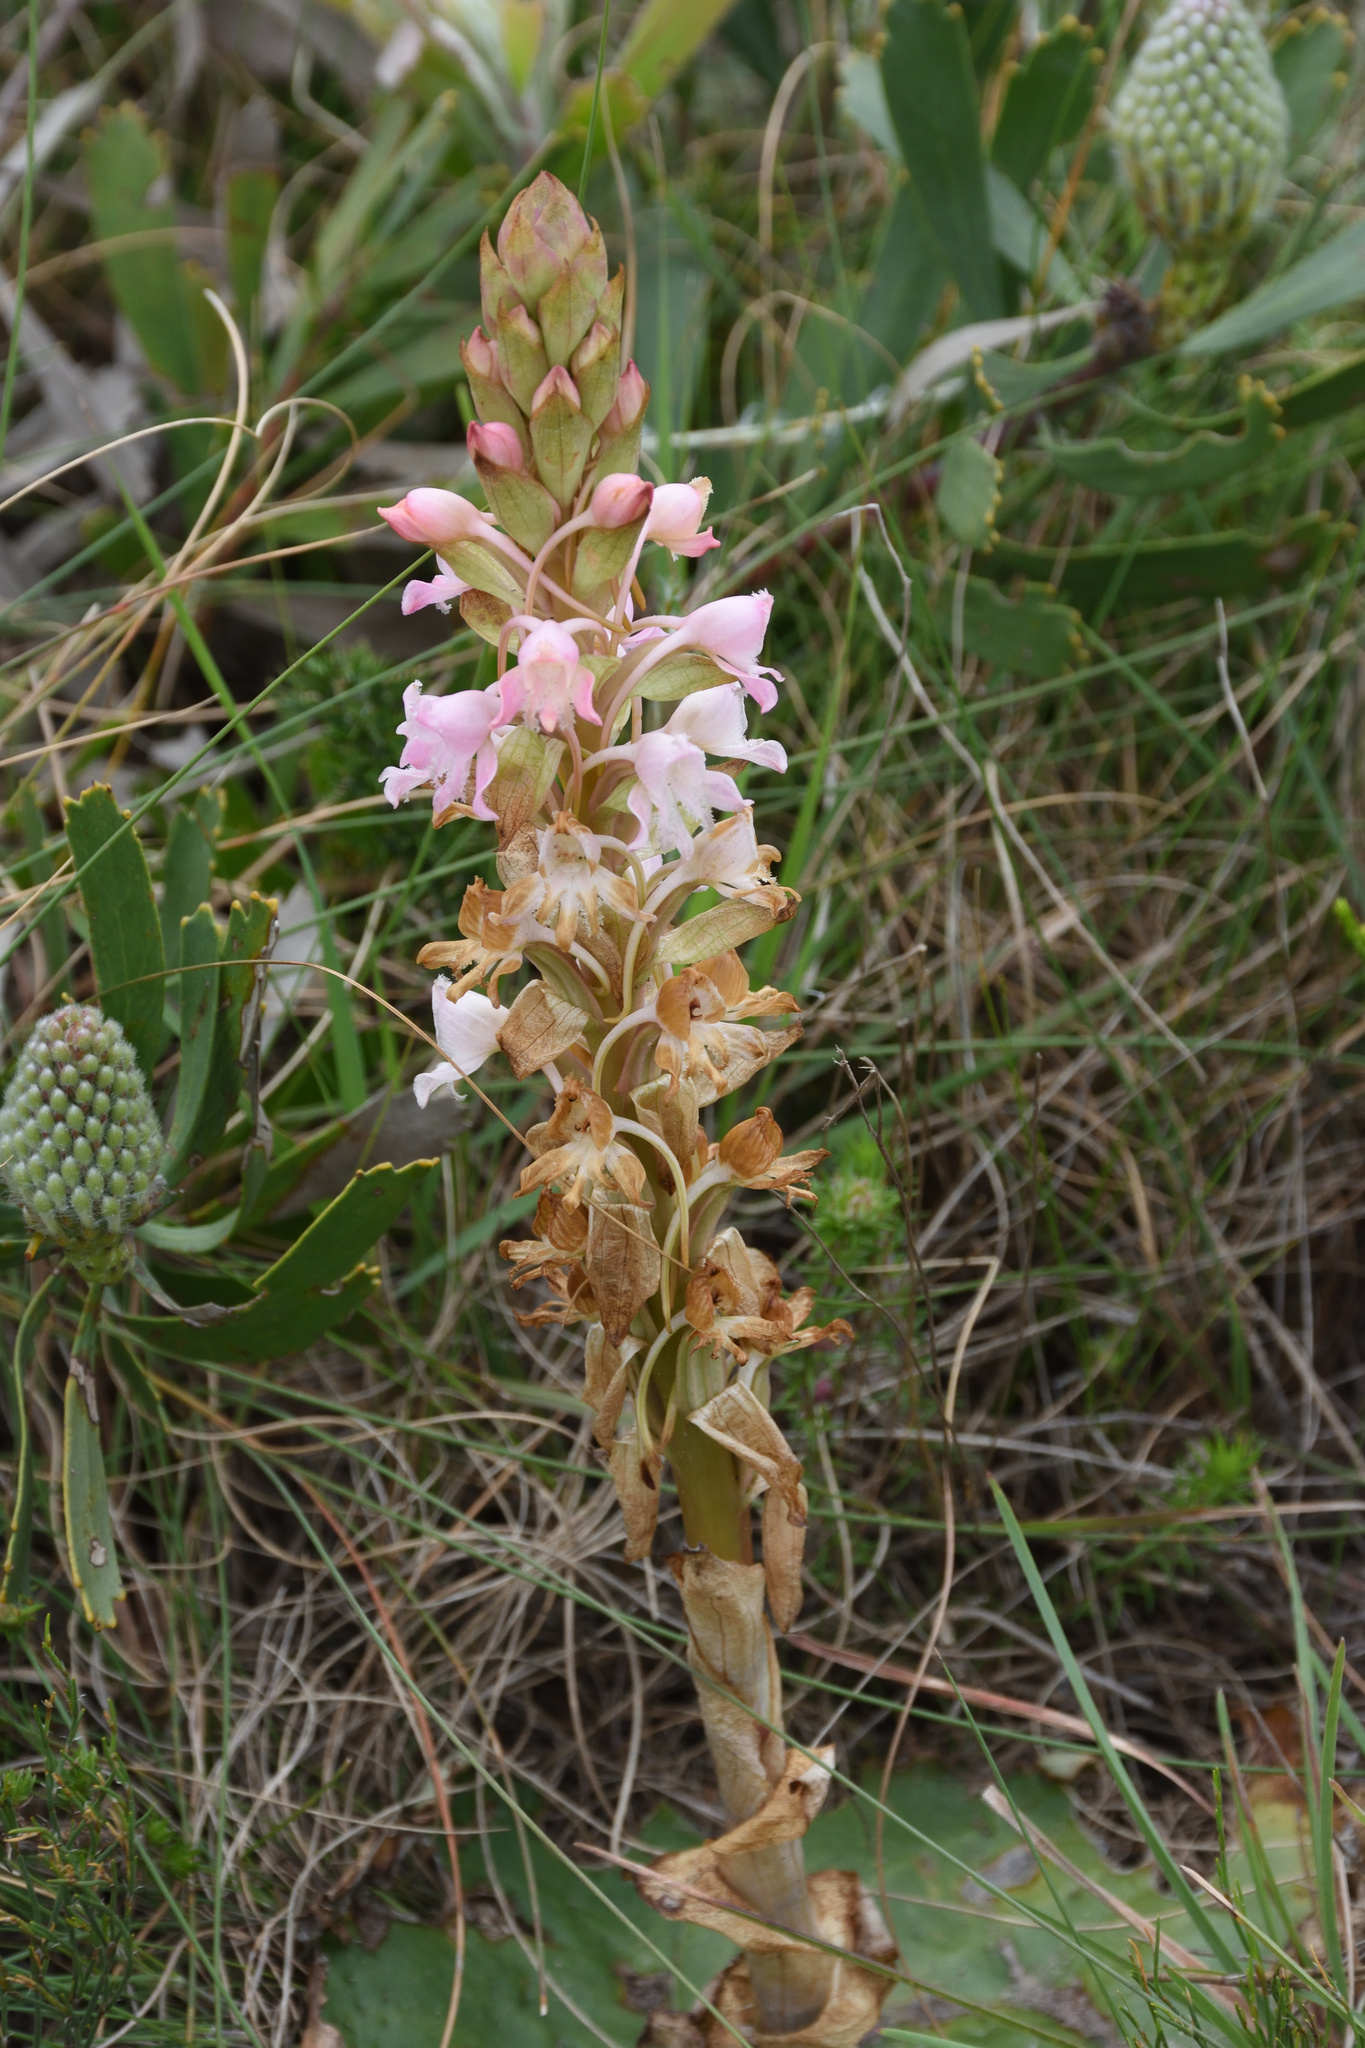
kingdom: Plantae
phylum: Tracheophyta
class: Liliopsida
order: Asparagales
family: Orchidaceae
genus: Satyrium
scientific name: Satyrium membranaceum
